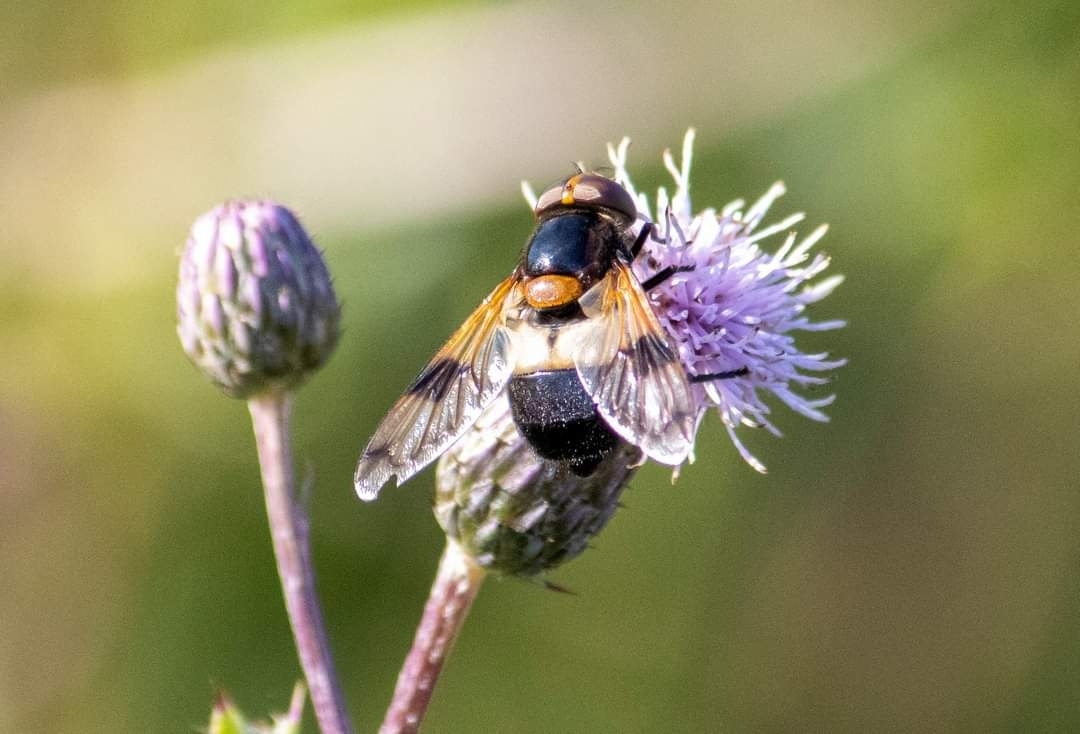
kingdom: Animalia
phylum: Arthropoda
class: Insecta
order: Diptera
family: Syrphidae
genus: Volucella
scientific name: Volucella pellucens
